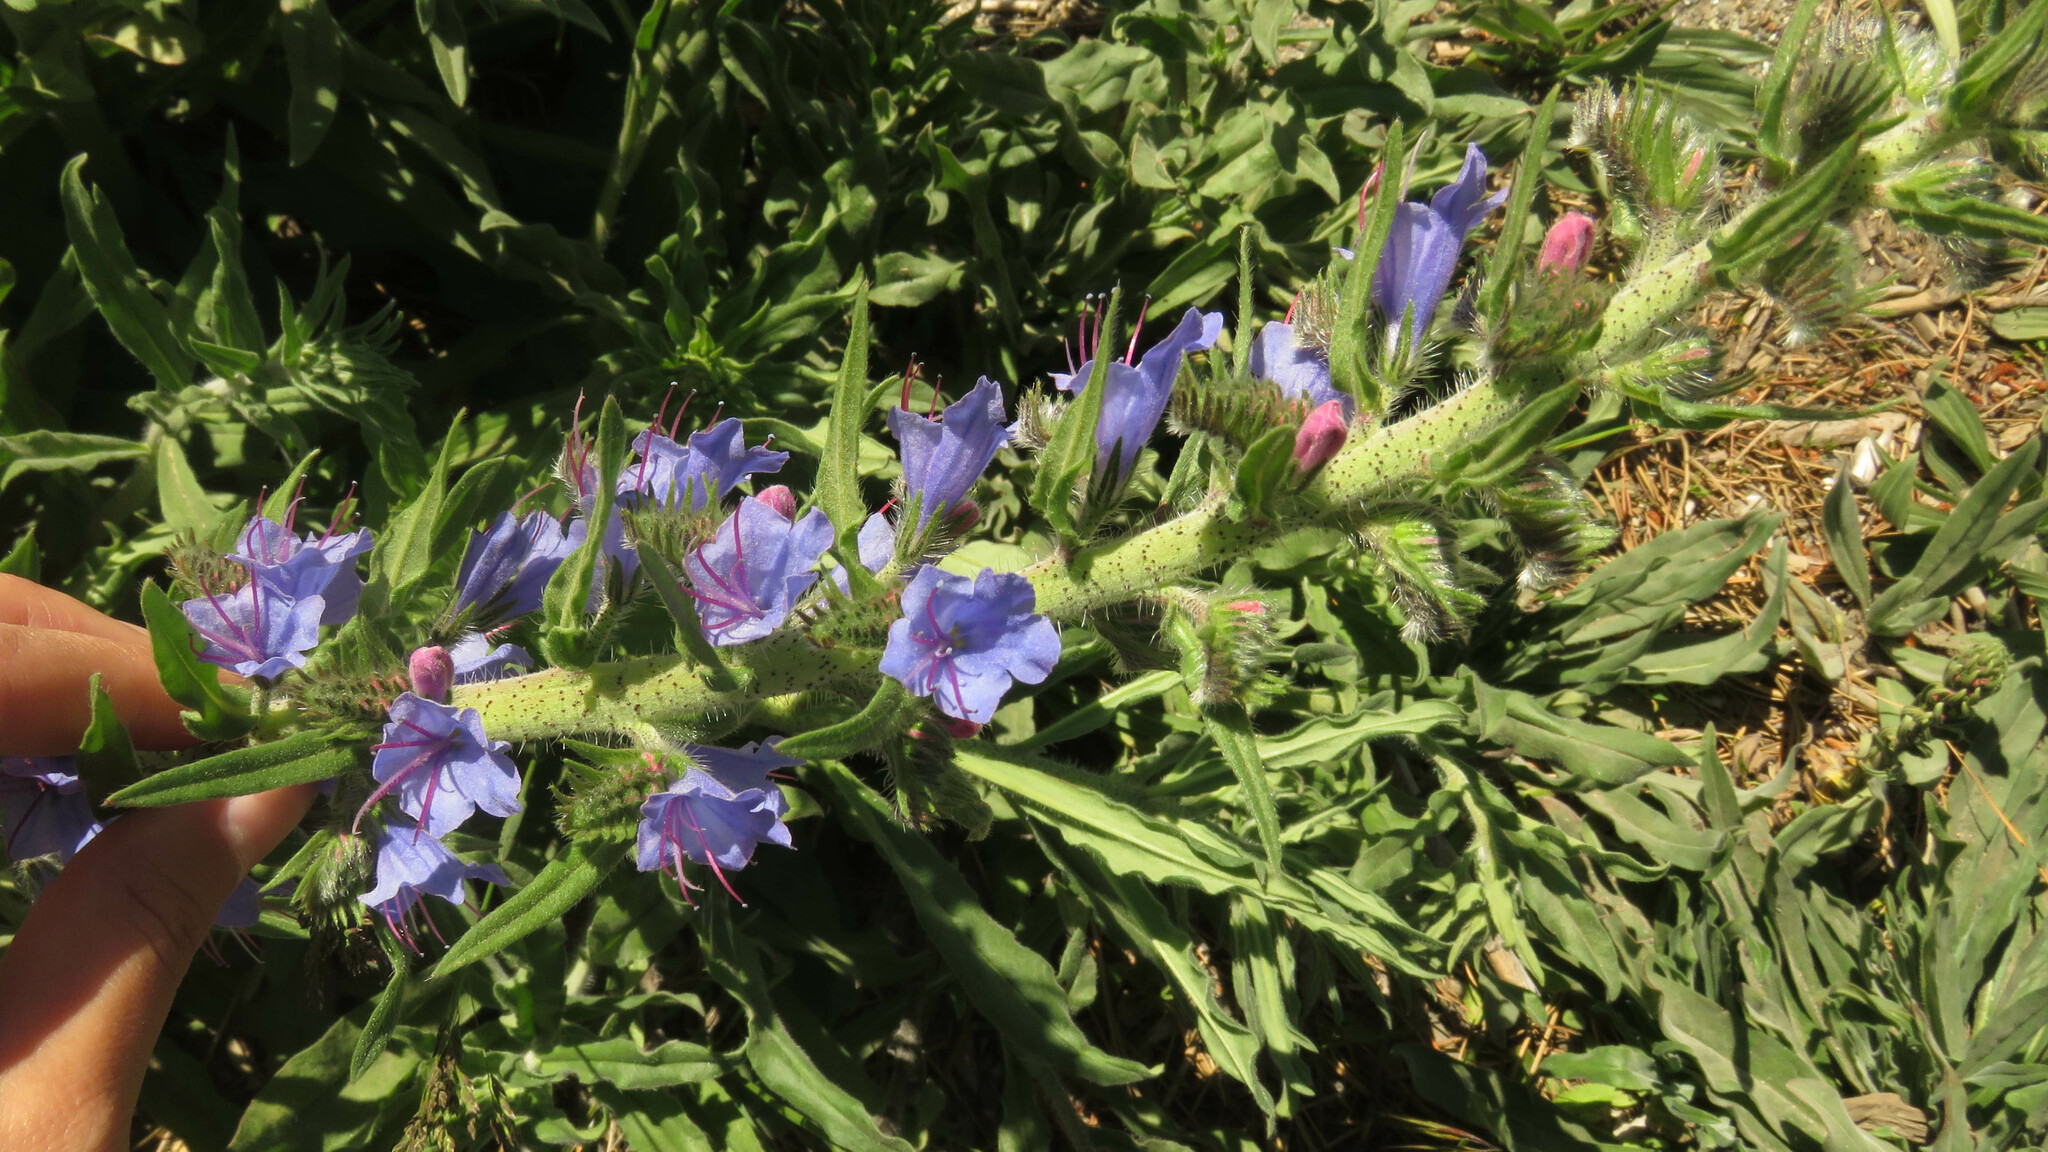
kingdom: Plantae
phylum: Tracheophyta
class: Magnoliopsida
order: Boraginales
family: Boraginaceae
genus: Echium
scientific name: Echium vulgare
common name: Common viper's bugloss
